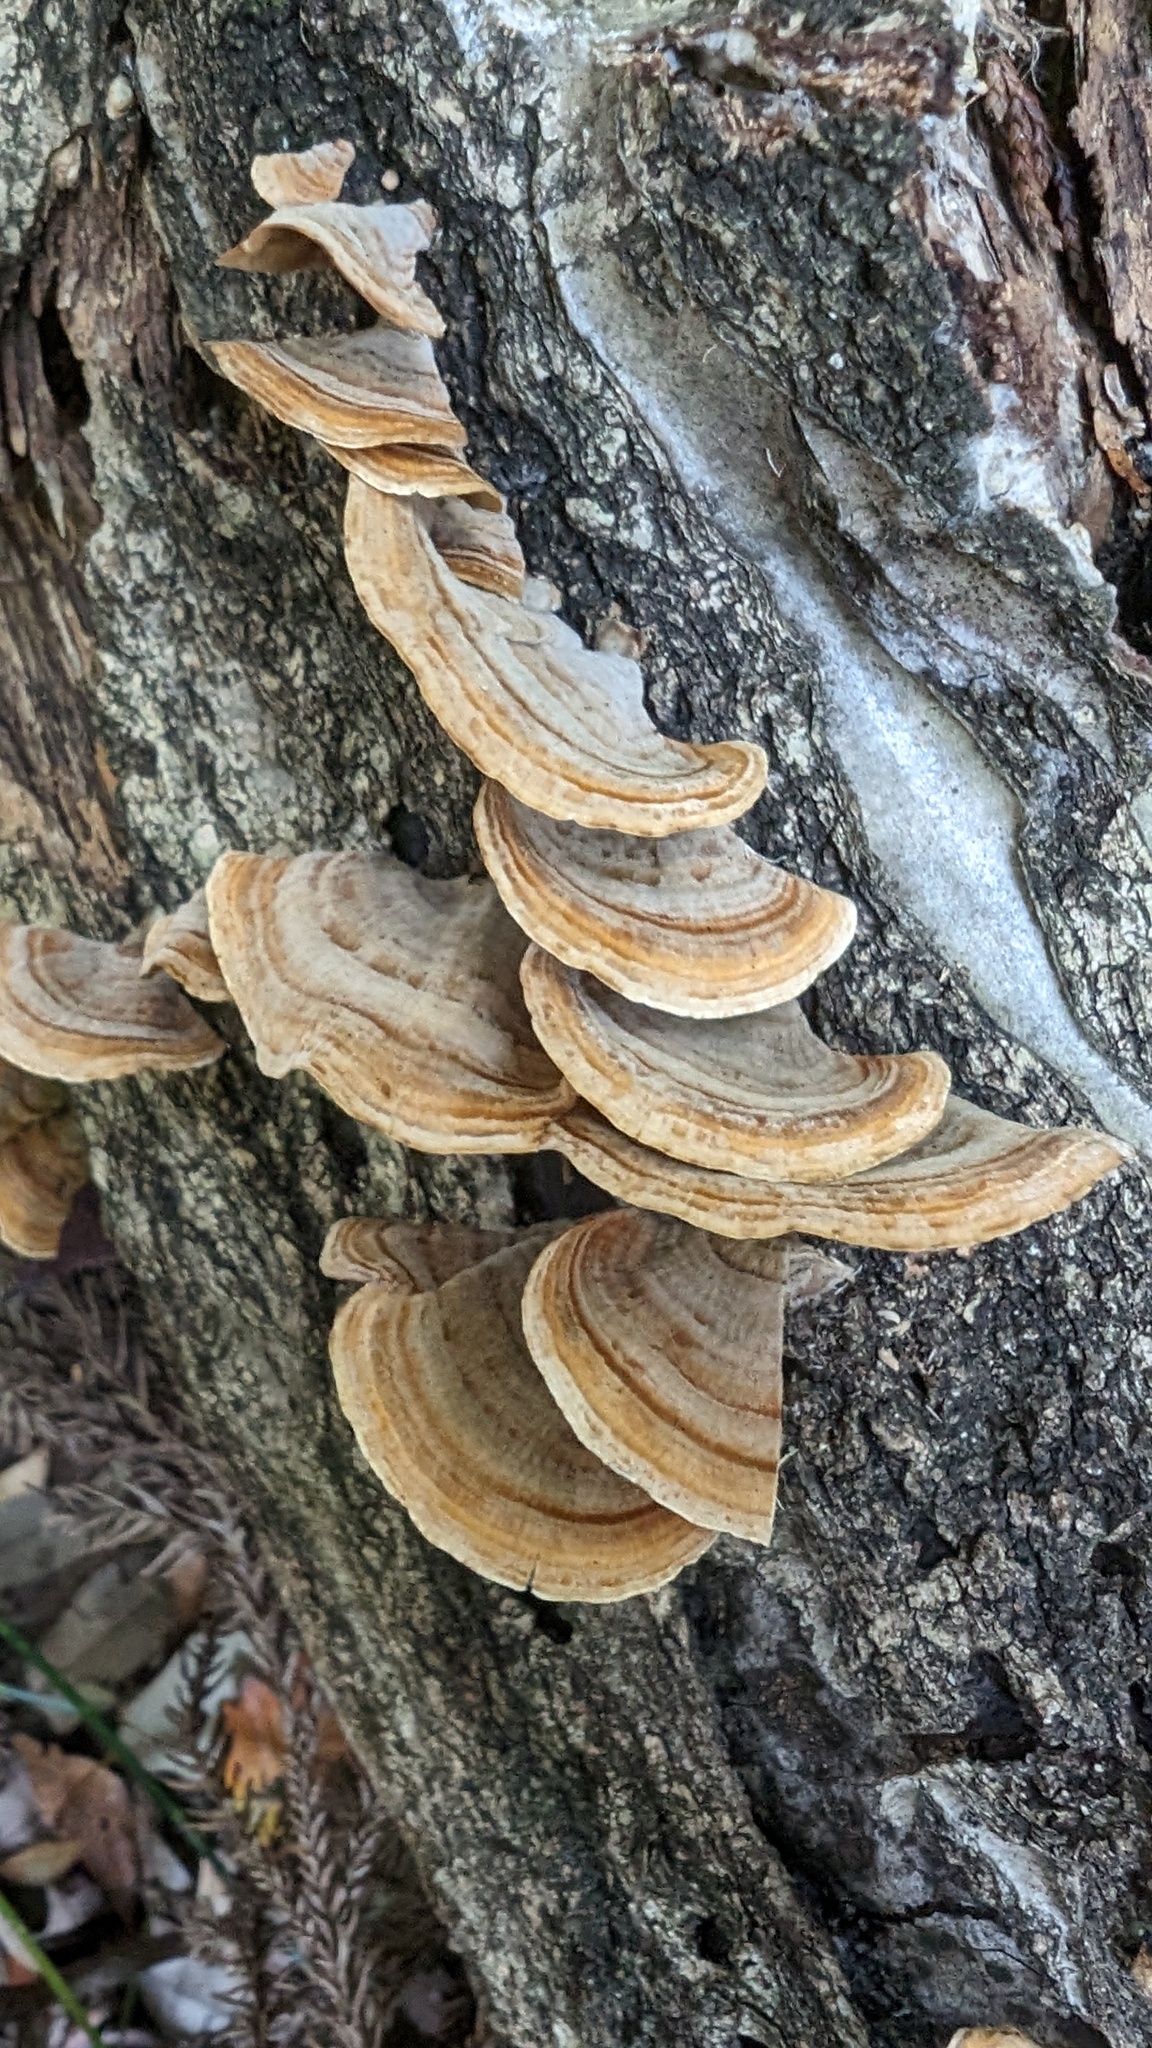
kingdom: Fungi
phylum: Basidiomycota
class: Agaricomycetes
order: Russulales
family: Stereaceae
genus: Stereum
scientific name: Stereum ostrea
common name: False turkeytail
